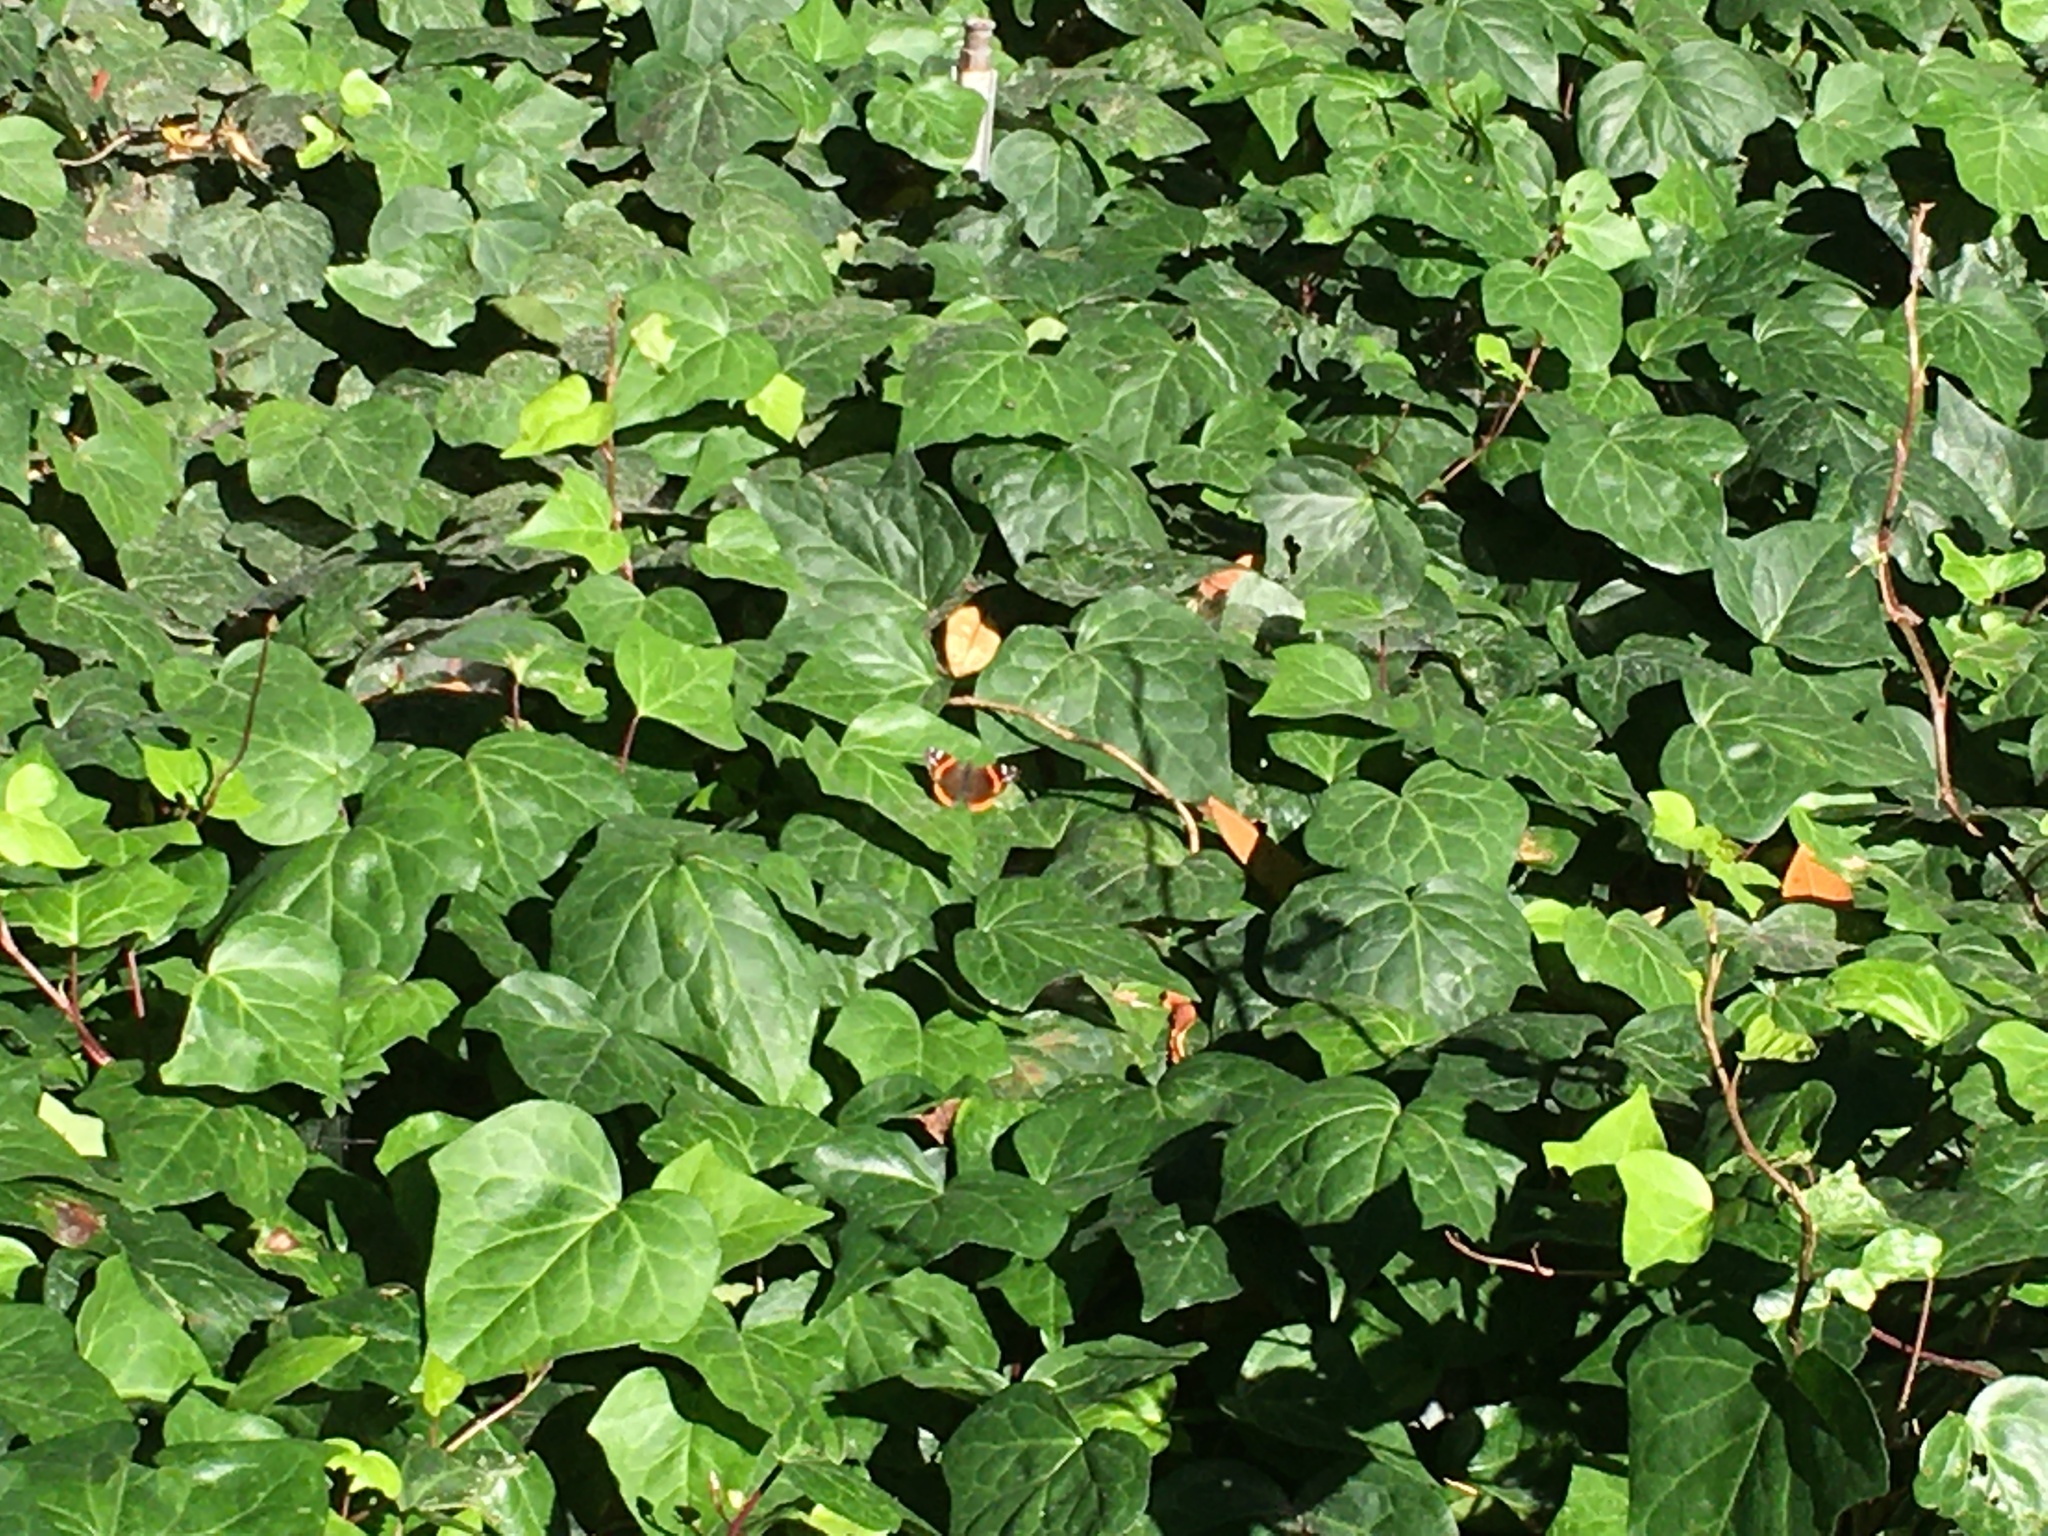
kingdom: Animalia
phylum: Arthropoda
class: Insecta
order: Lepidoptera
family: Nymphalidae
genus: Vanessa
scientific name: Vanessa atalanta
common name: Red admiral
